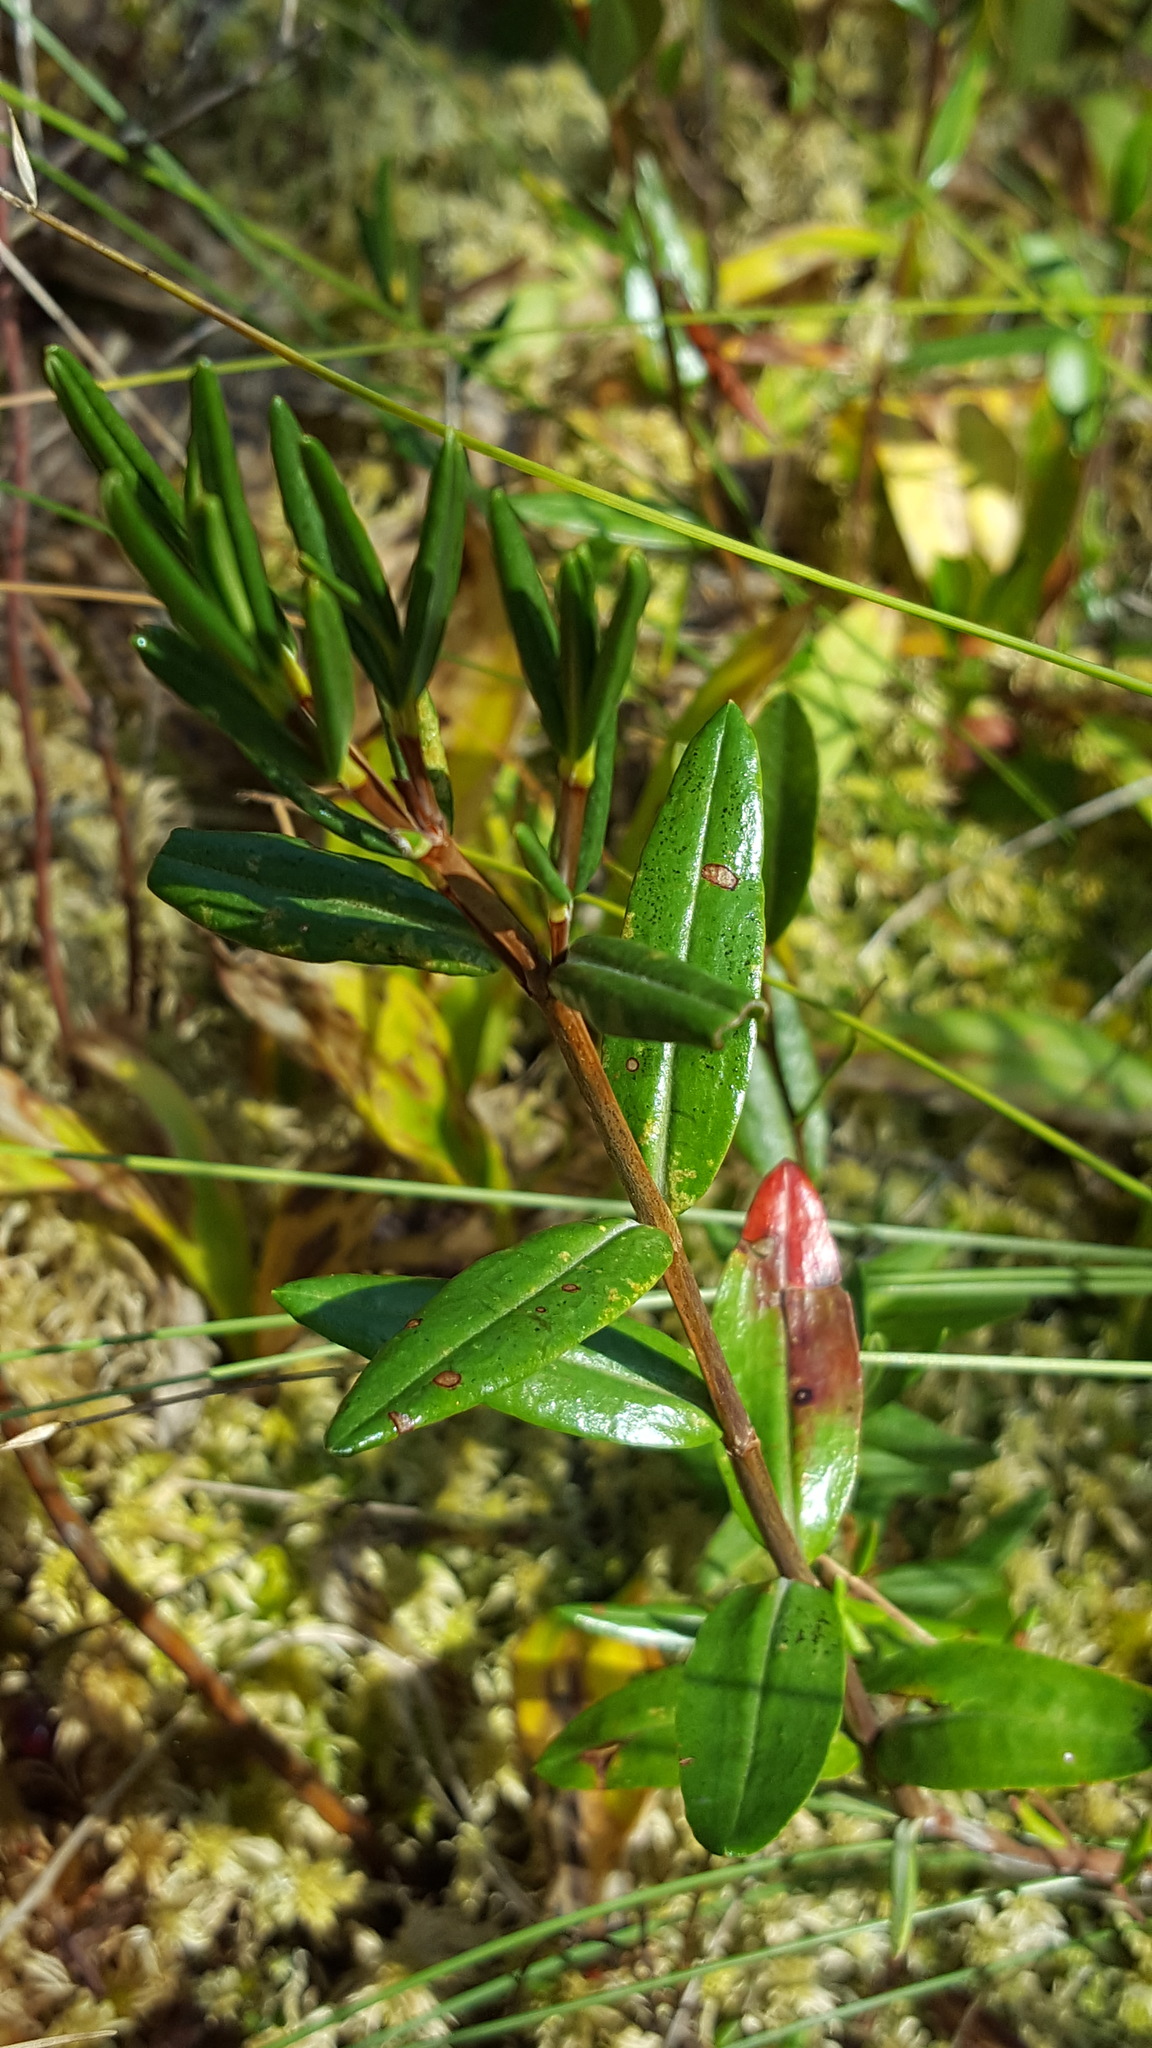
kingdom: Plantae
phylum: Tracheophyta
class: Magnoliopsida
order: Ericales
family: Ericaceae
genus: Kalmia
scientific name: Kalmia polifolia
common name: Bog-laurel
